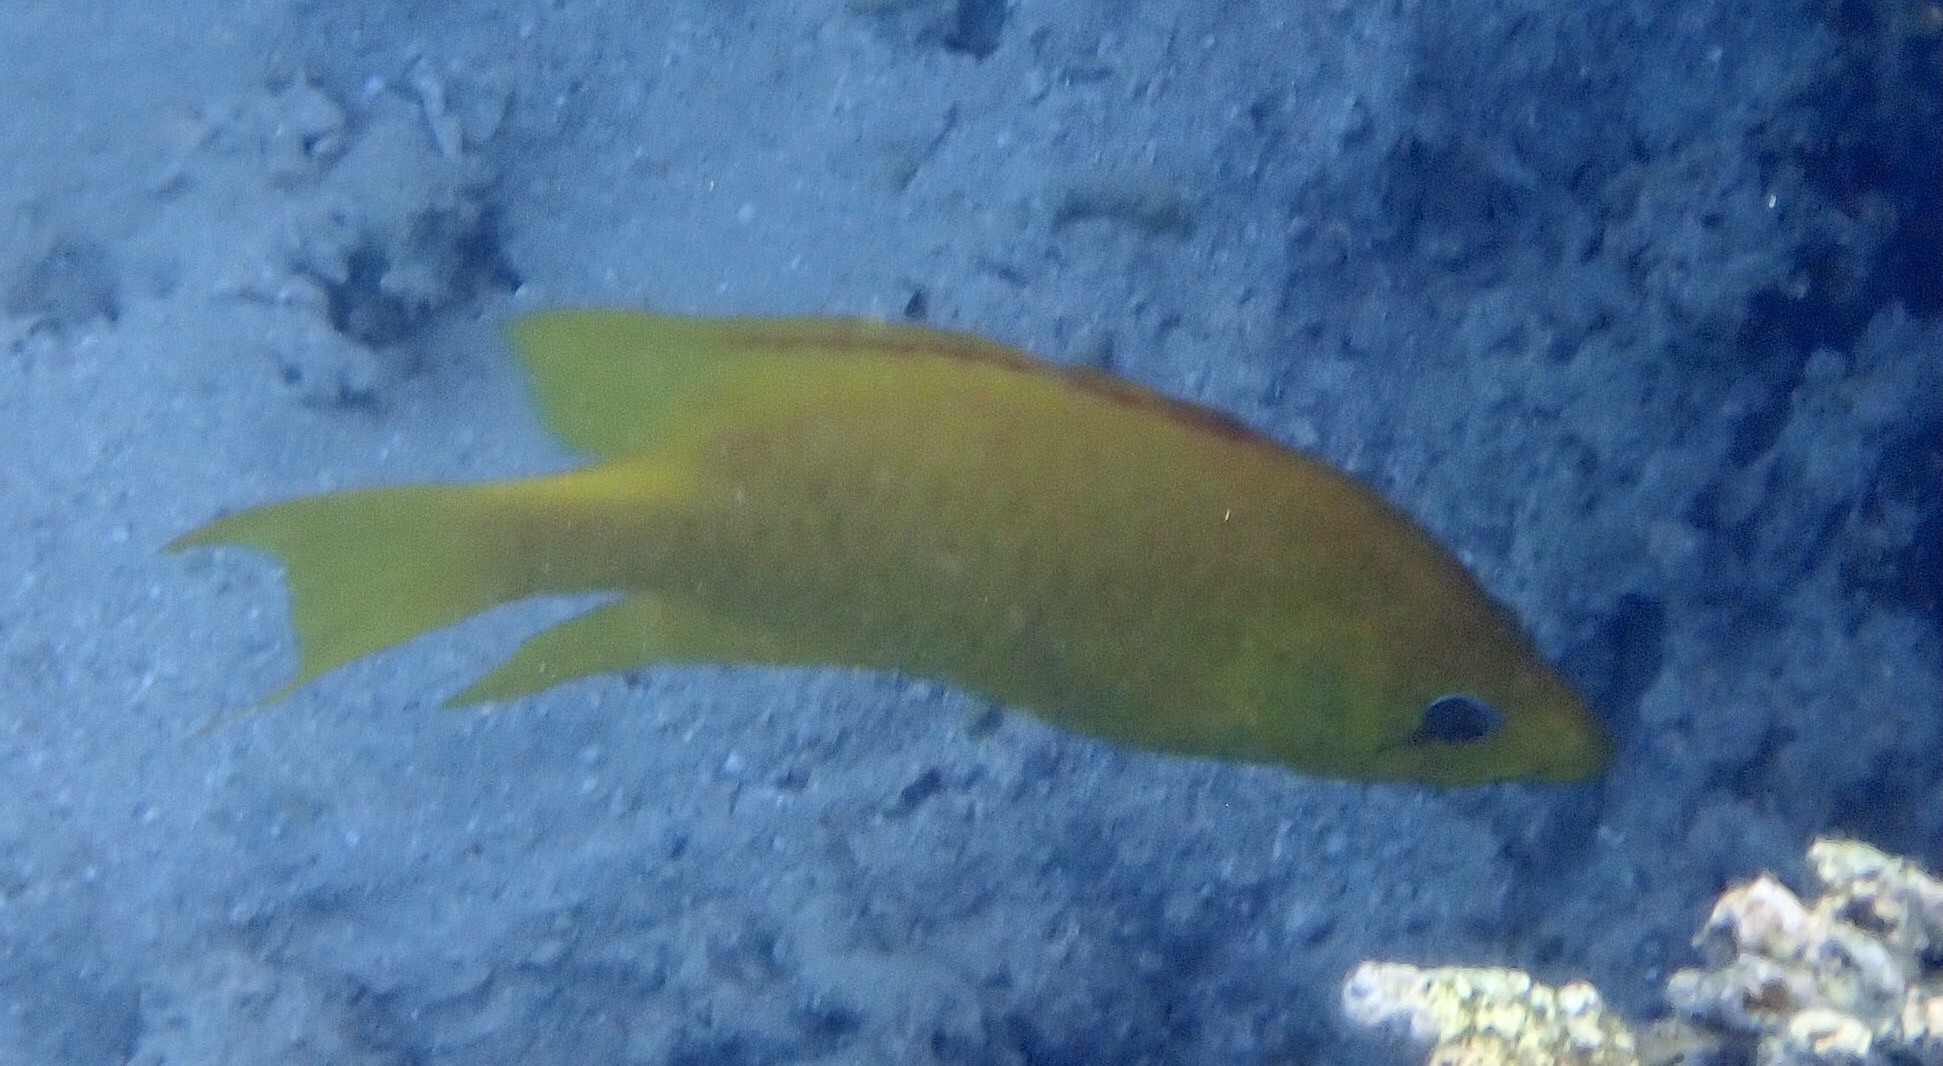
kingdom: Animalia
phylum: Chordata
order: Perciformes
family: Labridae
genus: Epibulus
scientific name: Epibulus insidiator
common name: Slingjaw wrasse
